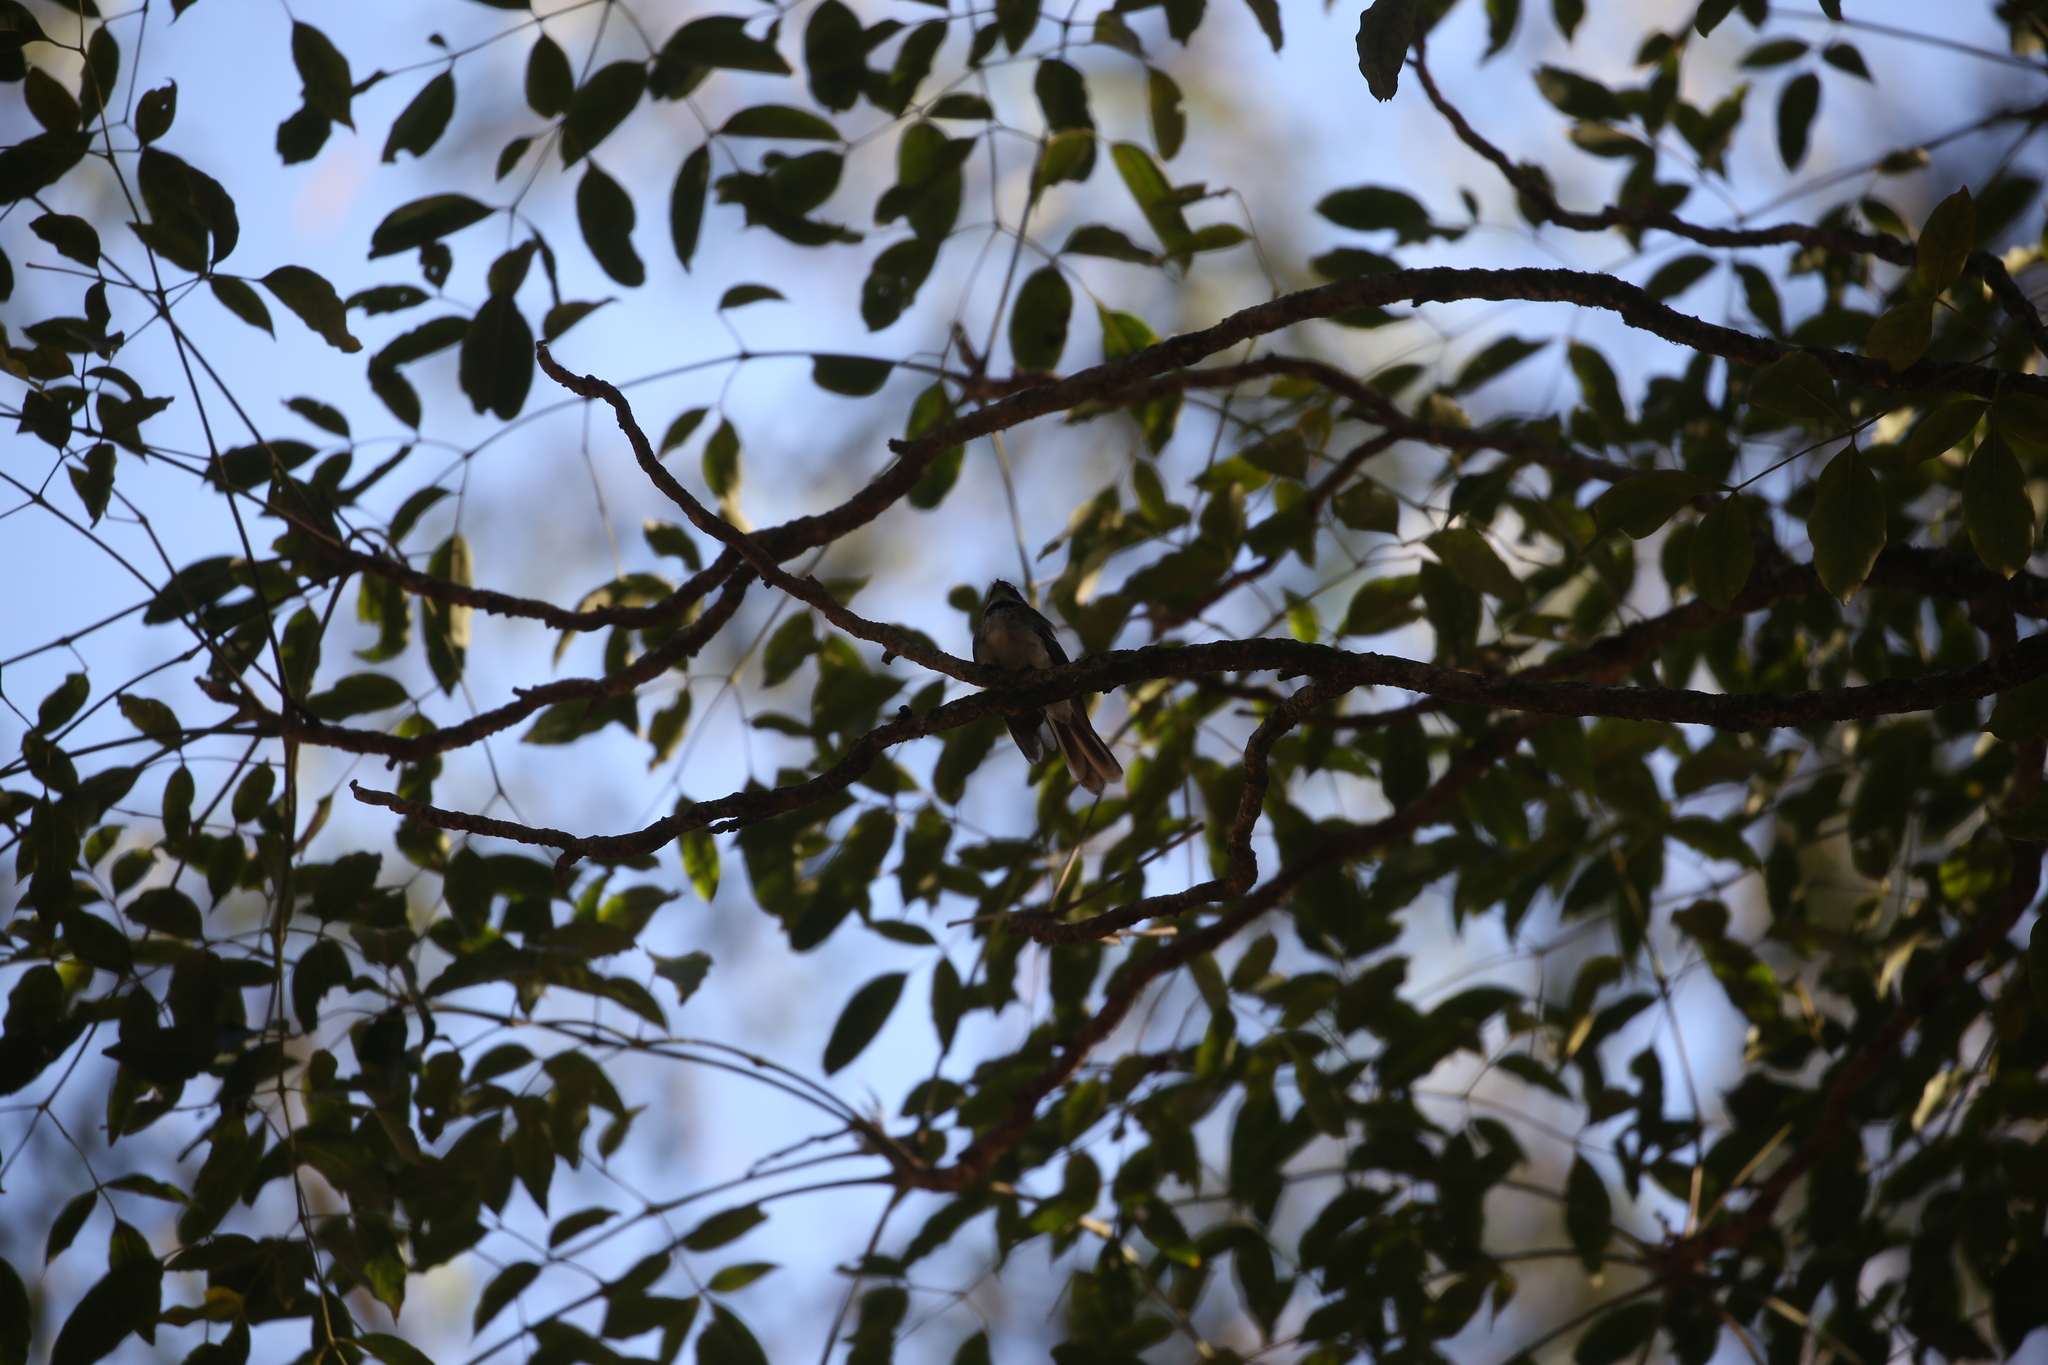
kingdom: Animalia
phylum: Chordata
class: Aves
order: Passeriformes
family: Rhipiduridae
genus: Rhipidura
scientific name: Rhipidura albiscapa
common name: Grey fantail
